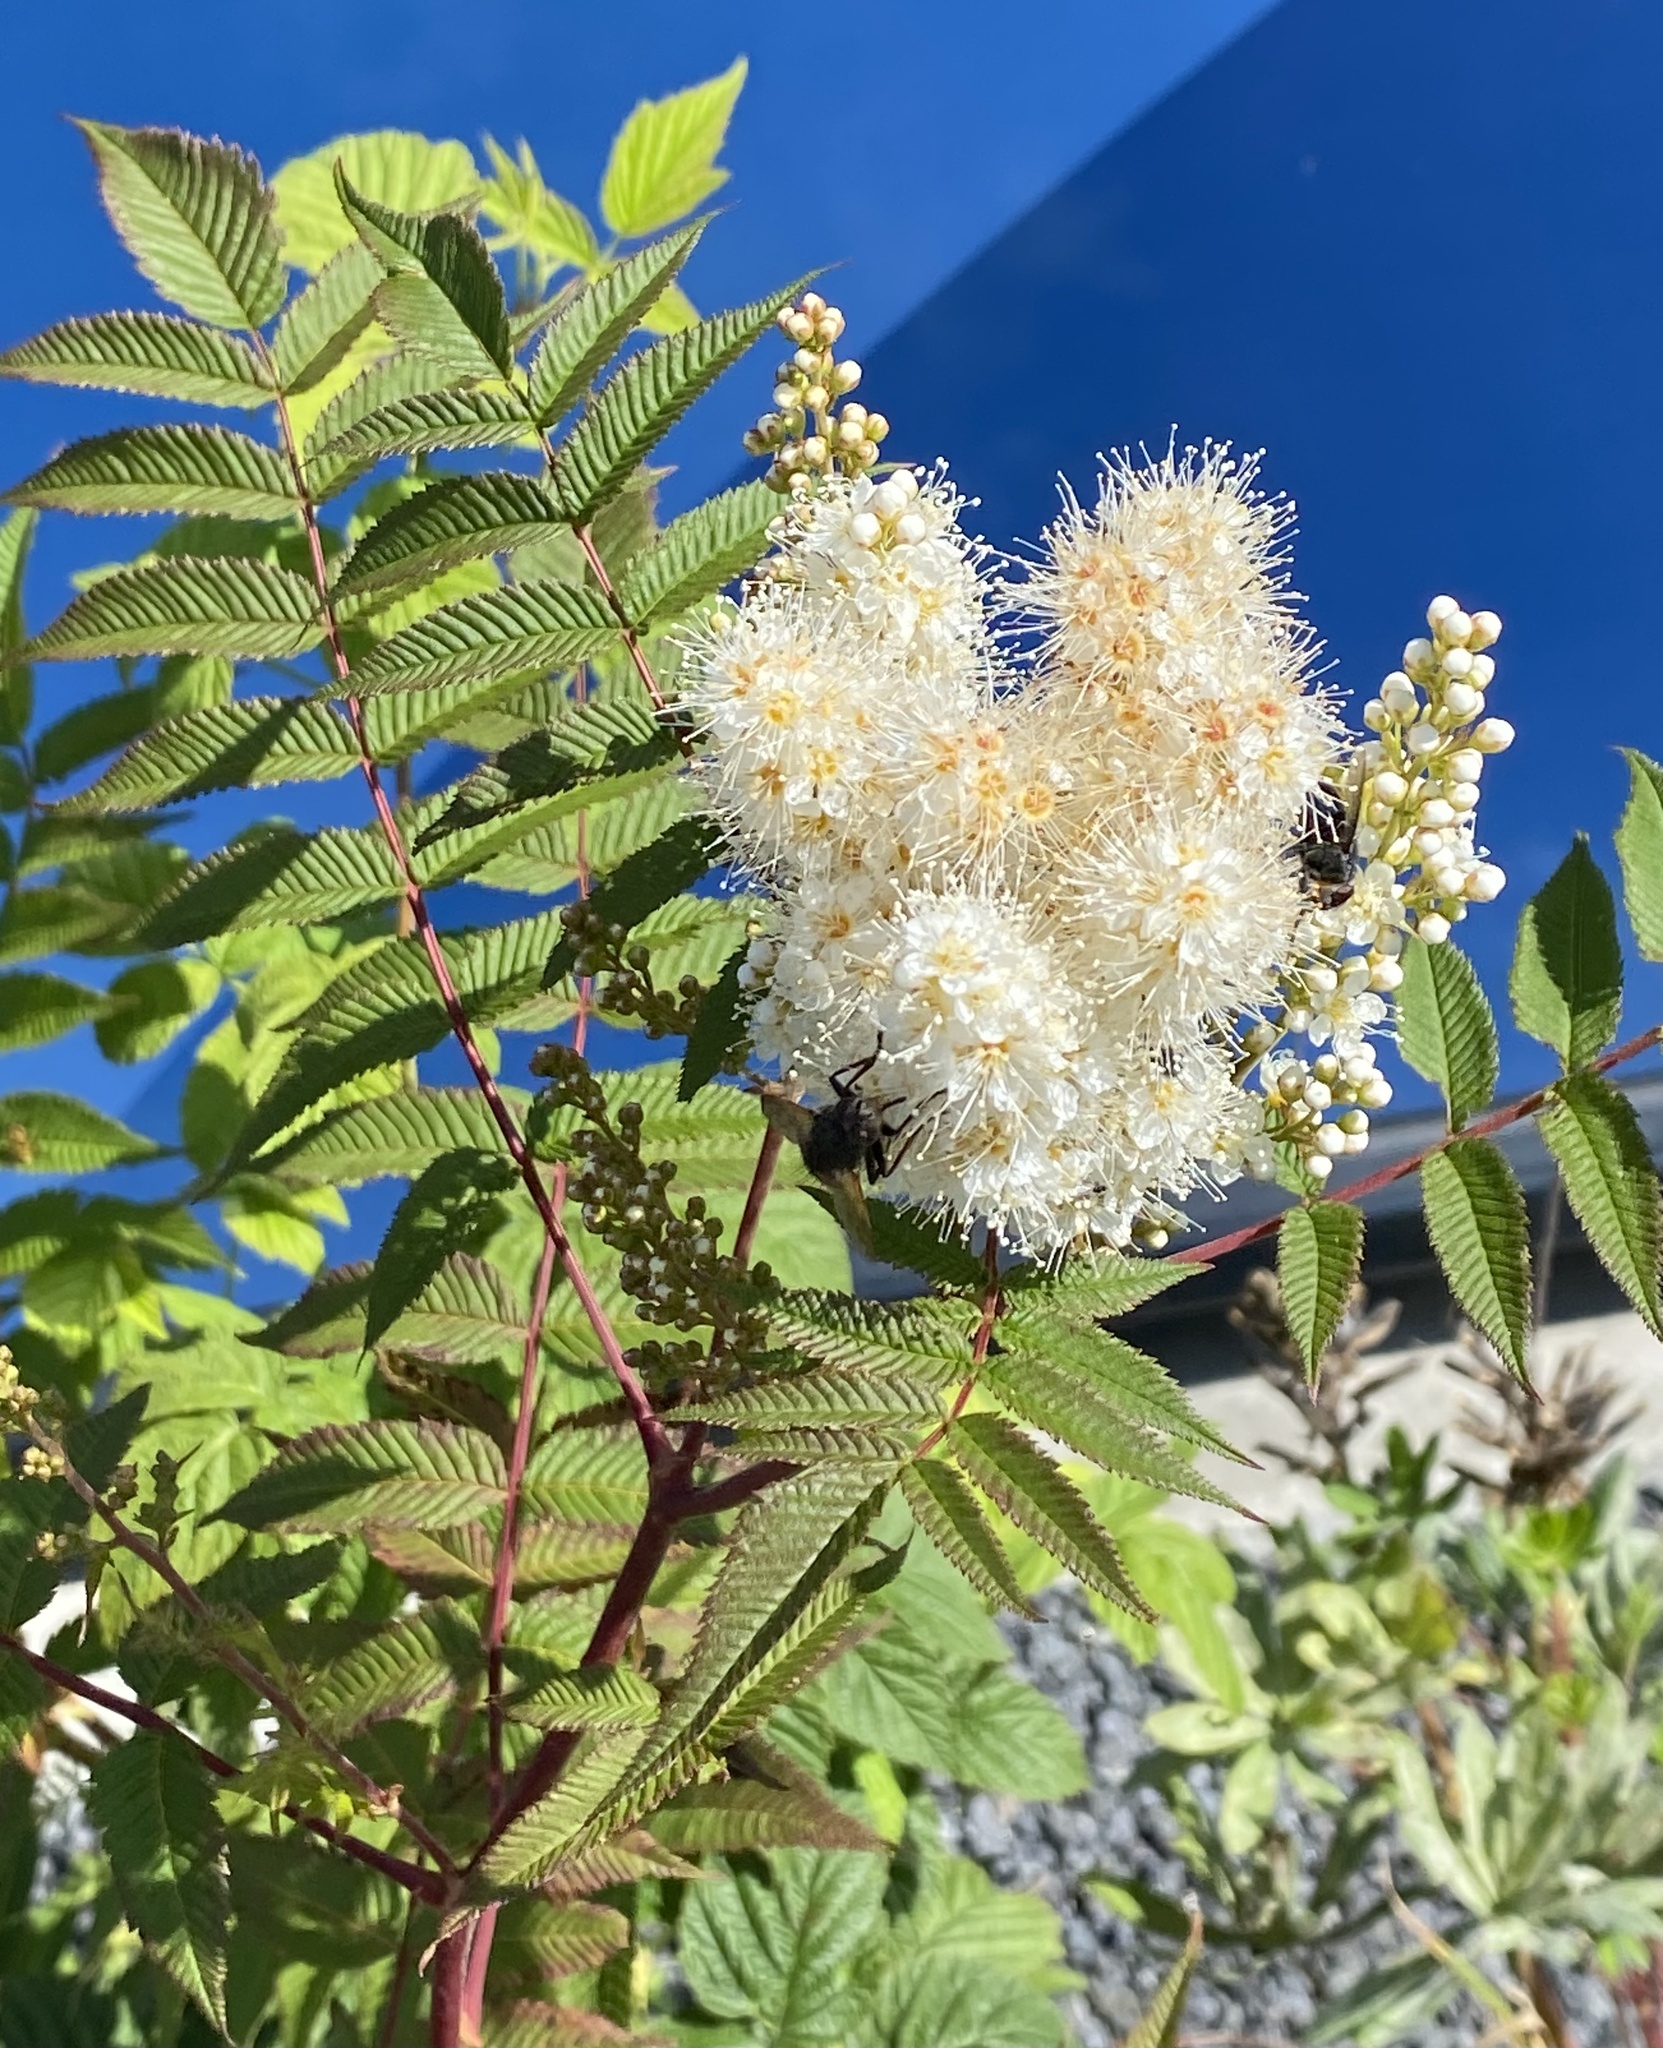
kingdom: Plantae
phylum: Tracheophyta
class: Magnoliopsida
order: Rosales
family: Rosaceae
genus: Filipendula
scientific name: Filipendula ulmaria
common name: Meadowsweet
